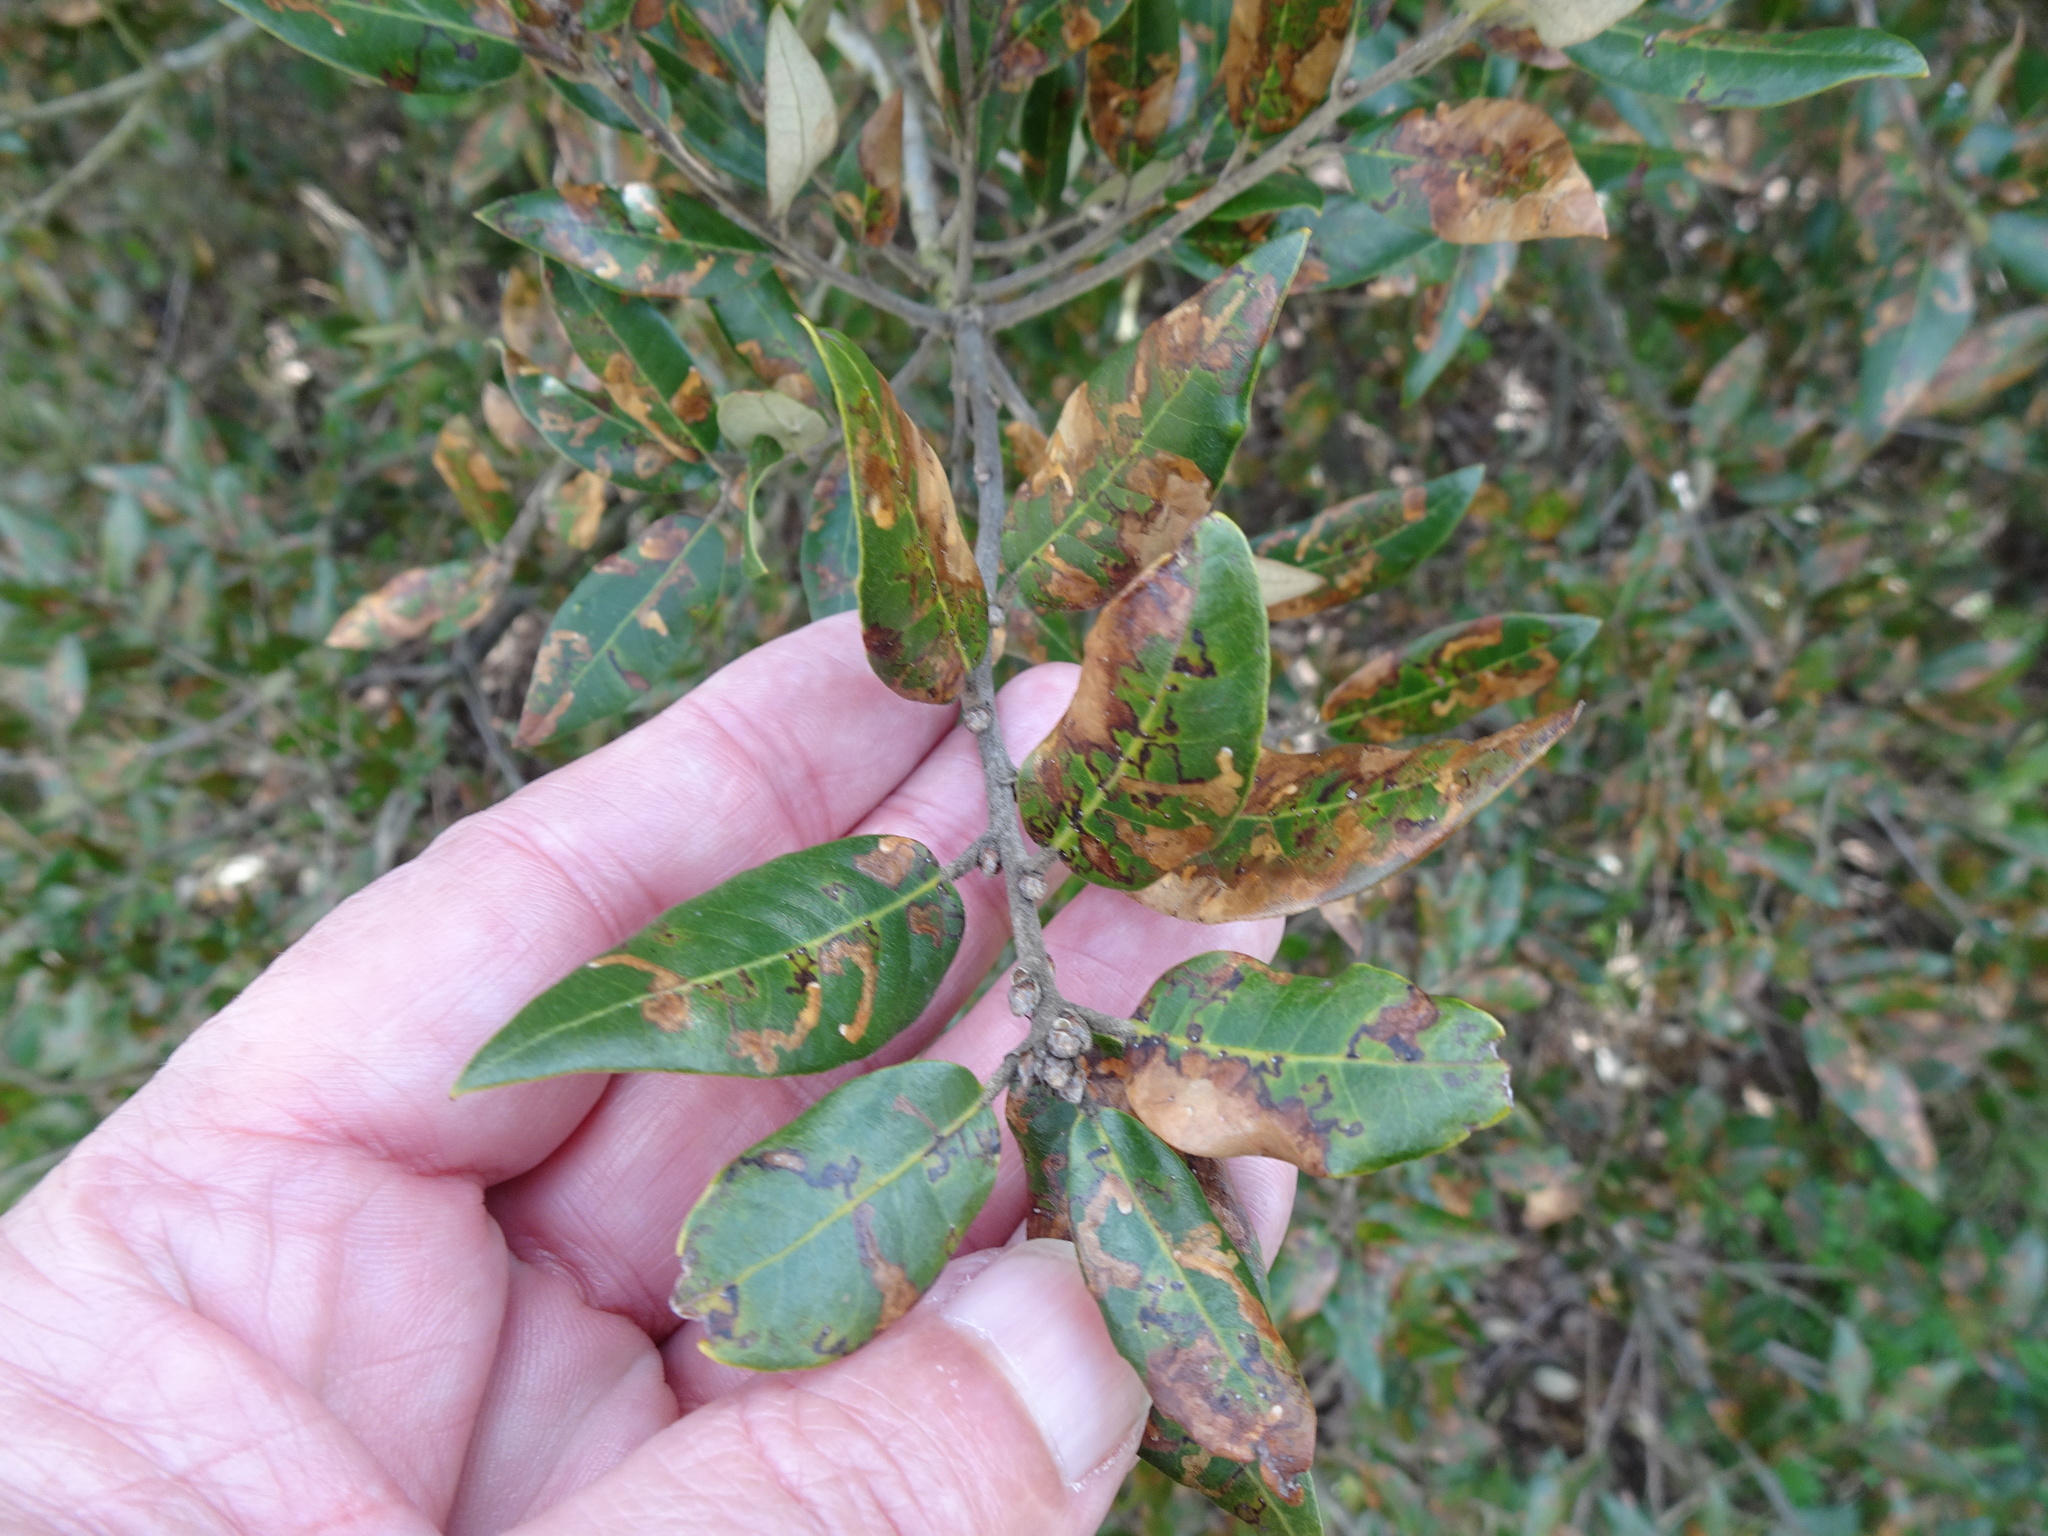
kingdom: Plantae
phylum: Tracheophyta
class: Magnoliopsida
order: Fagales
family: Fagaceae
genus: Quercus
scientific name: Quercus ilex
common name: Evergreen oak
